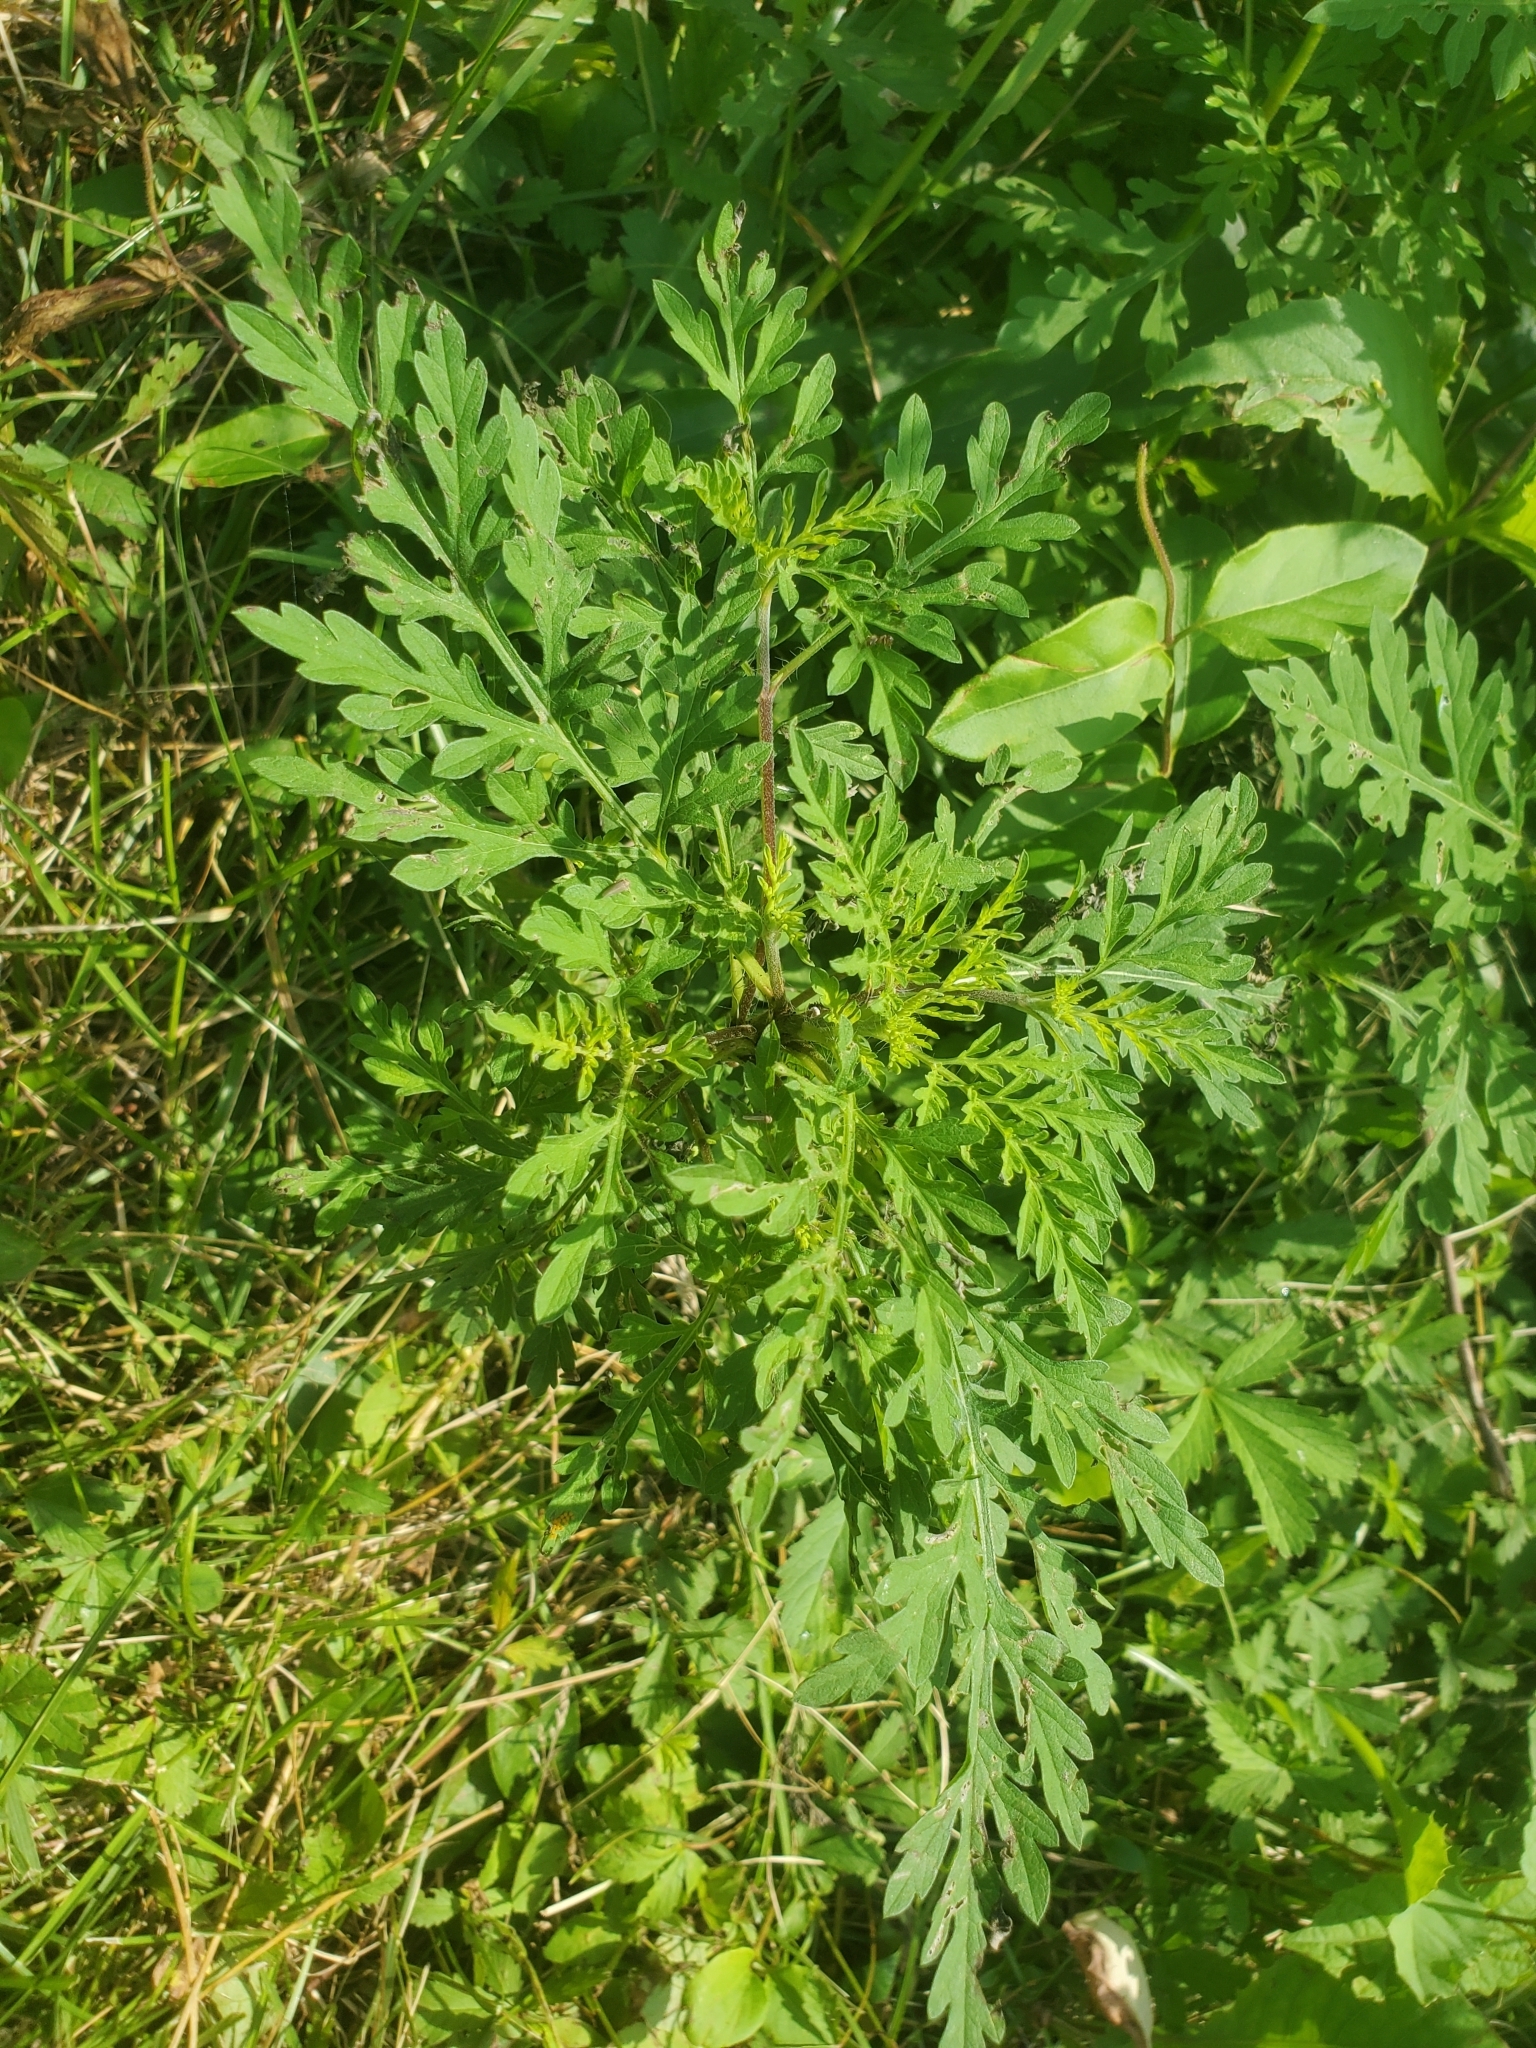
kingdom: Plantae
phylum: Tracheophyta
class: Magnoliopsida
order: Asterales
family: Asteraceae
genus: Ambrosia
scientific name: Ambrosia artemisiifolia
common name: Annual ragweed
